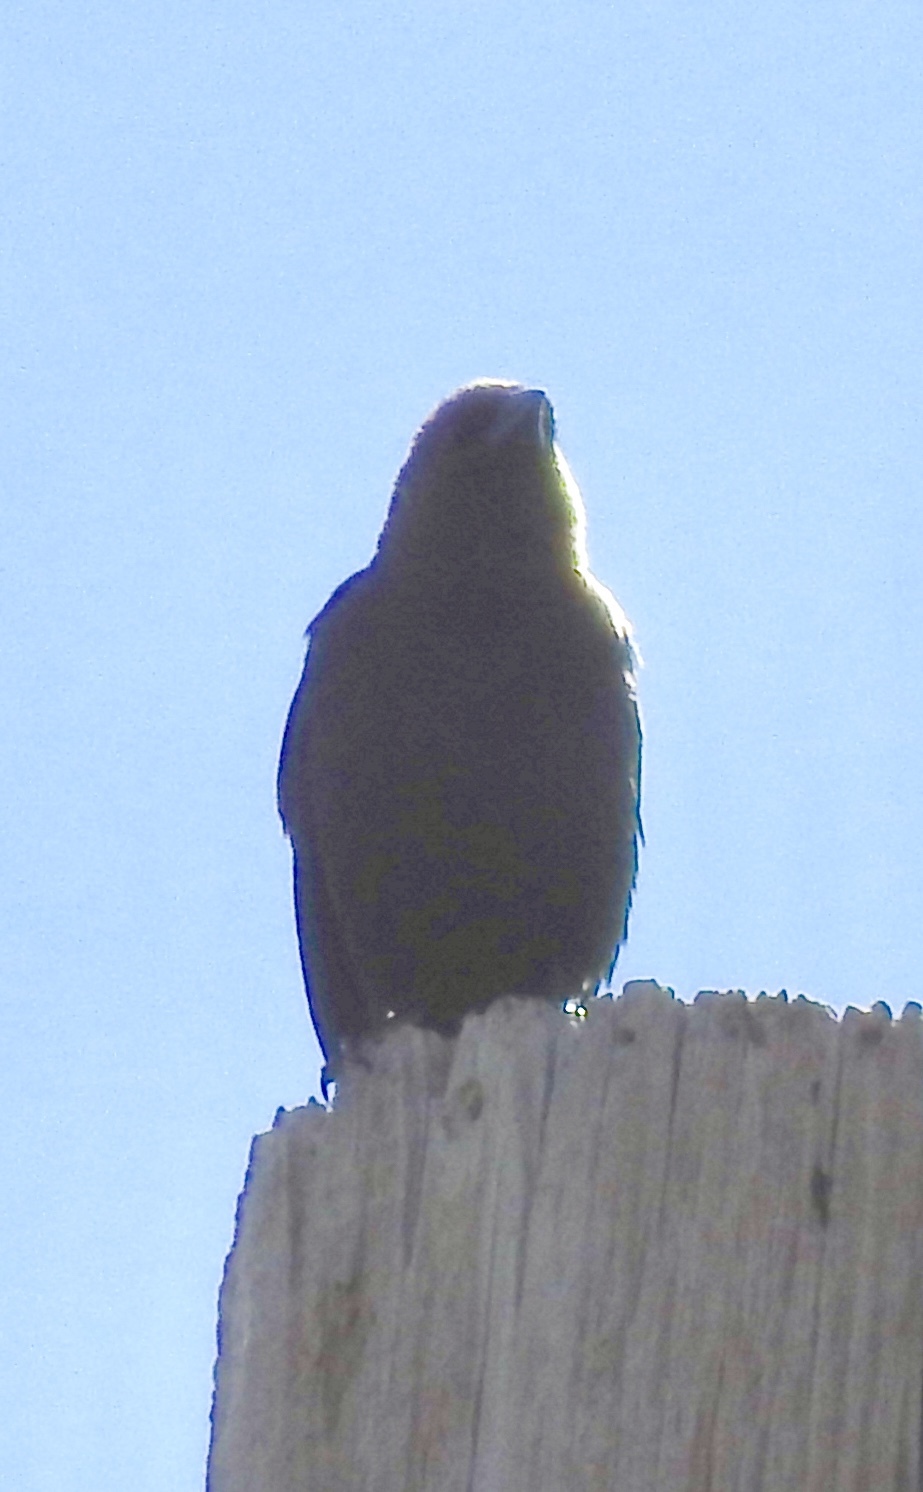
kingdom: Animalia
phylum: Chordata
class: Aves
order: Passeriformes
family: Icteridae
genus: Molothrus
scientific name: Molothrus ater
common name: Brown-headed cowbird
